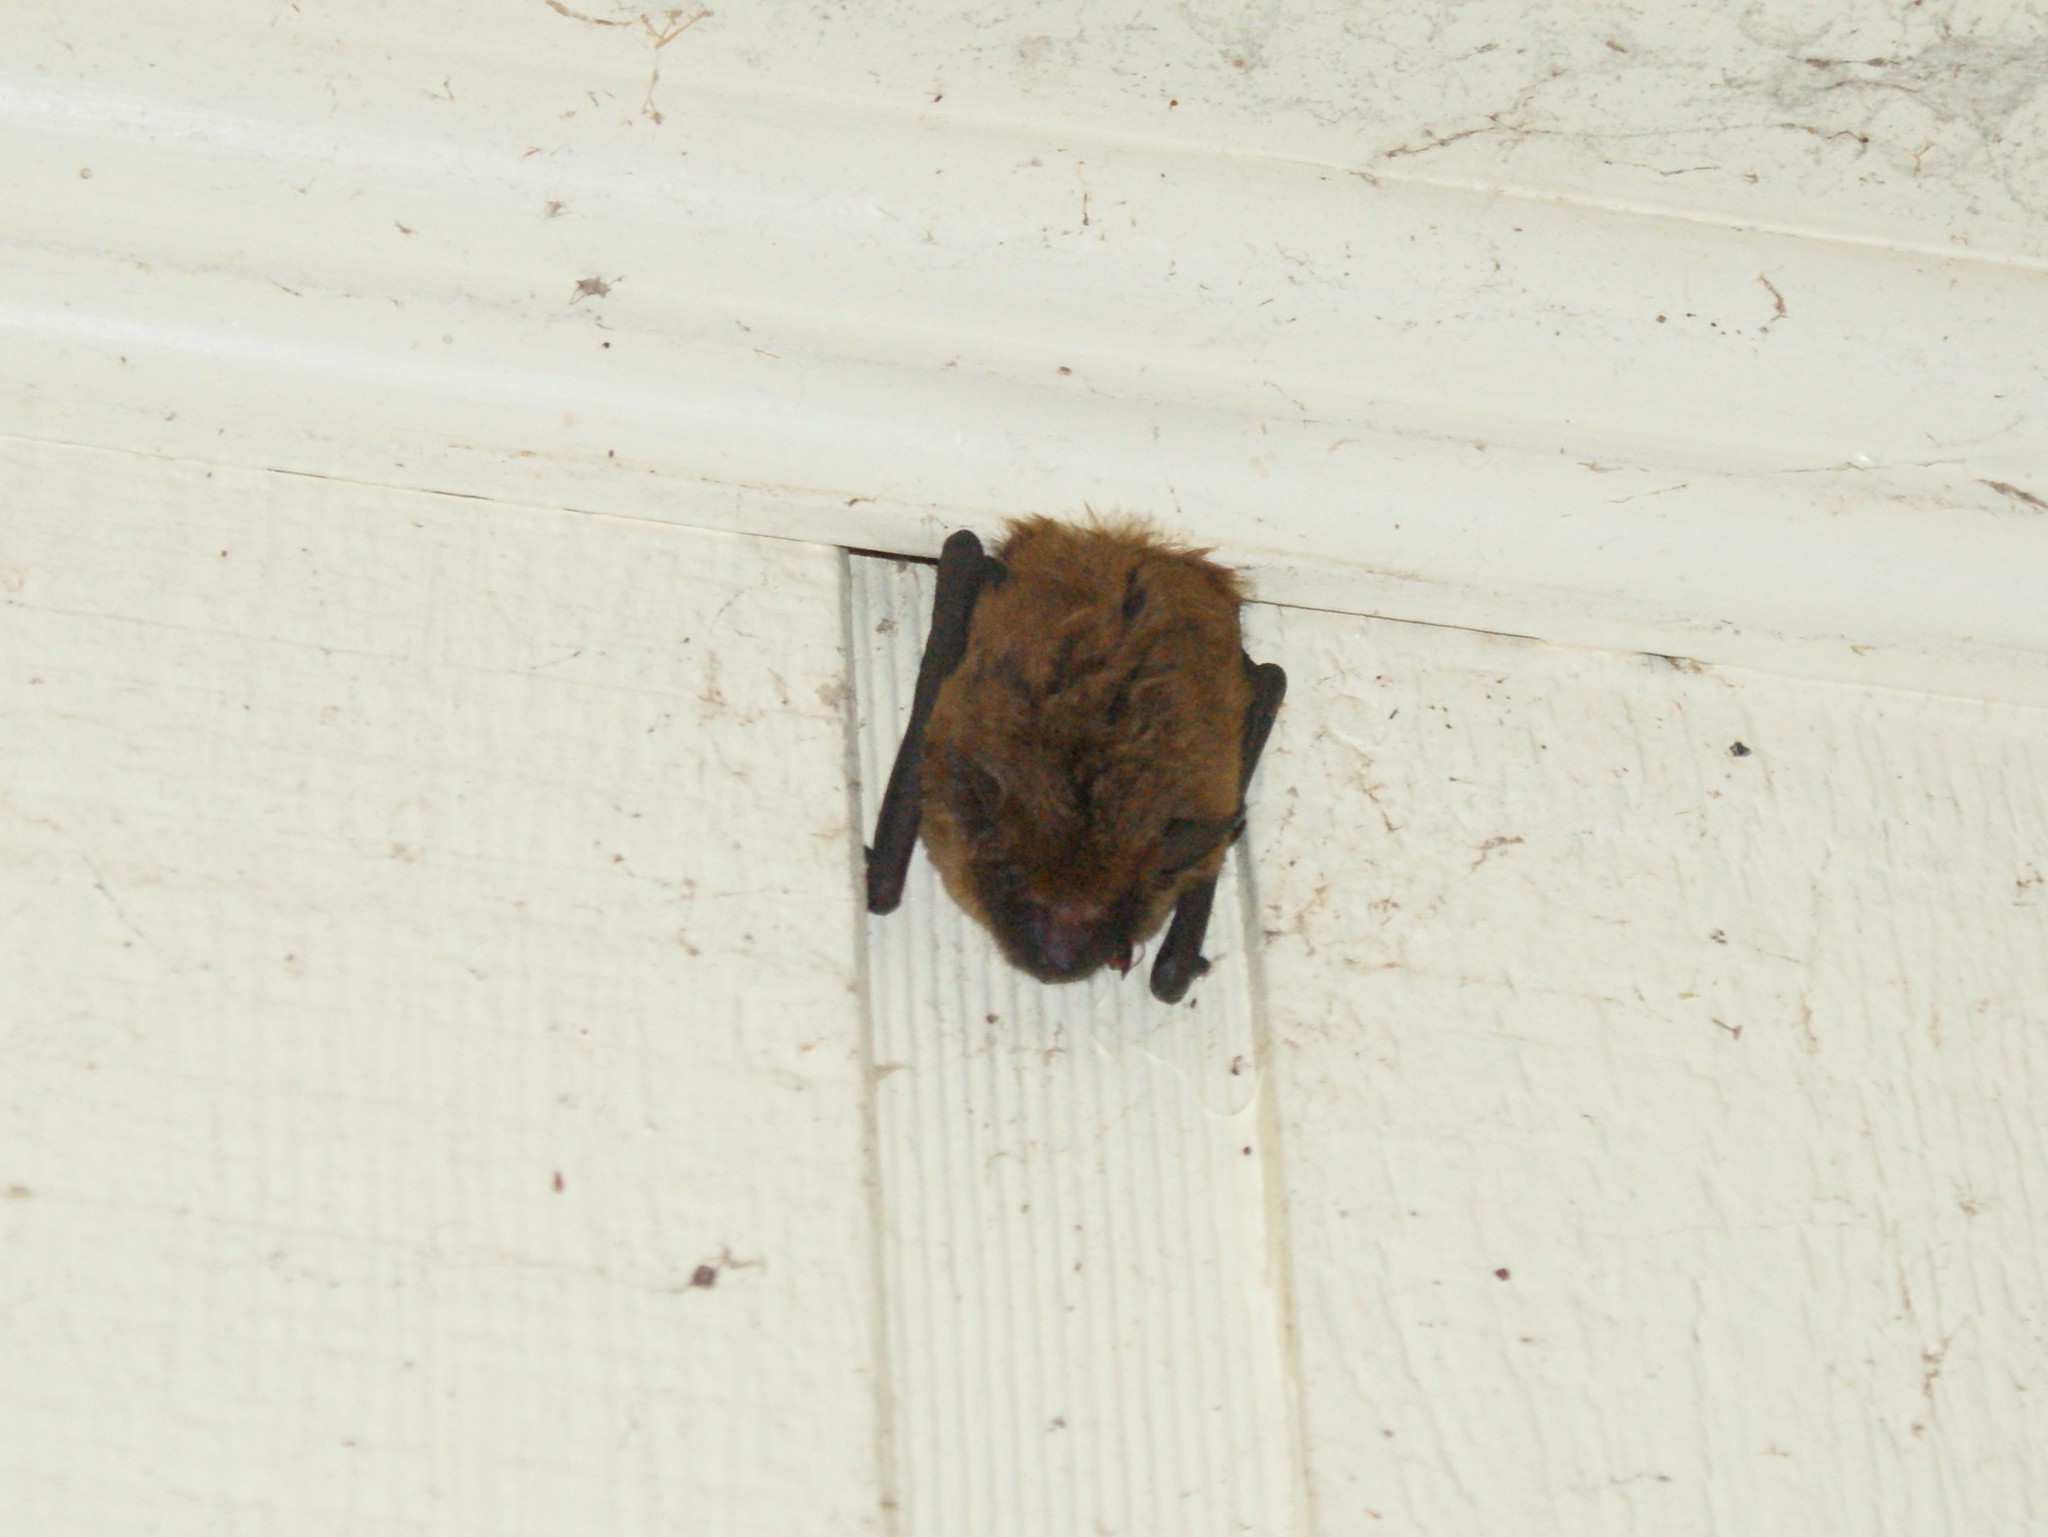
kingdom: Animalia
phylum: Chordata
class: Mammalia
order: Chiroptera
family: Vespertilionidae
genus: Eptesicus
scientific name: Eptesicus fuscus
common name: Big brown bat
